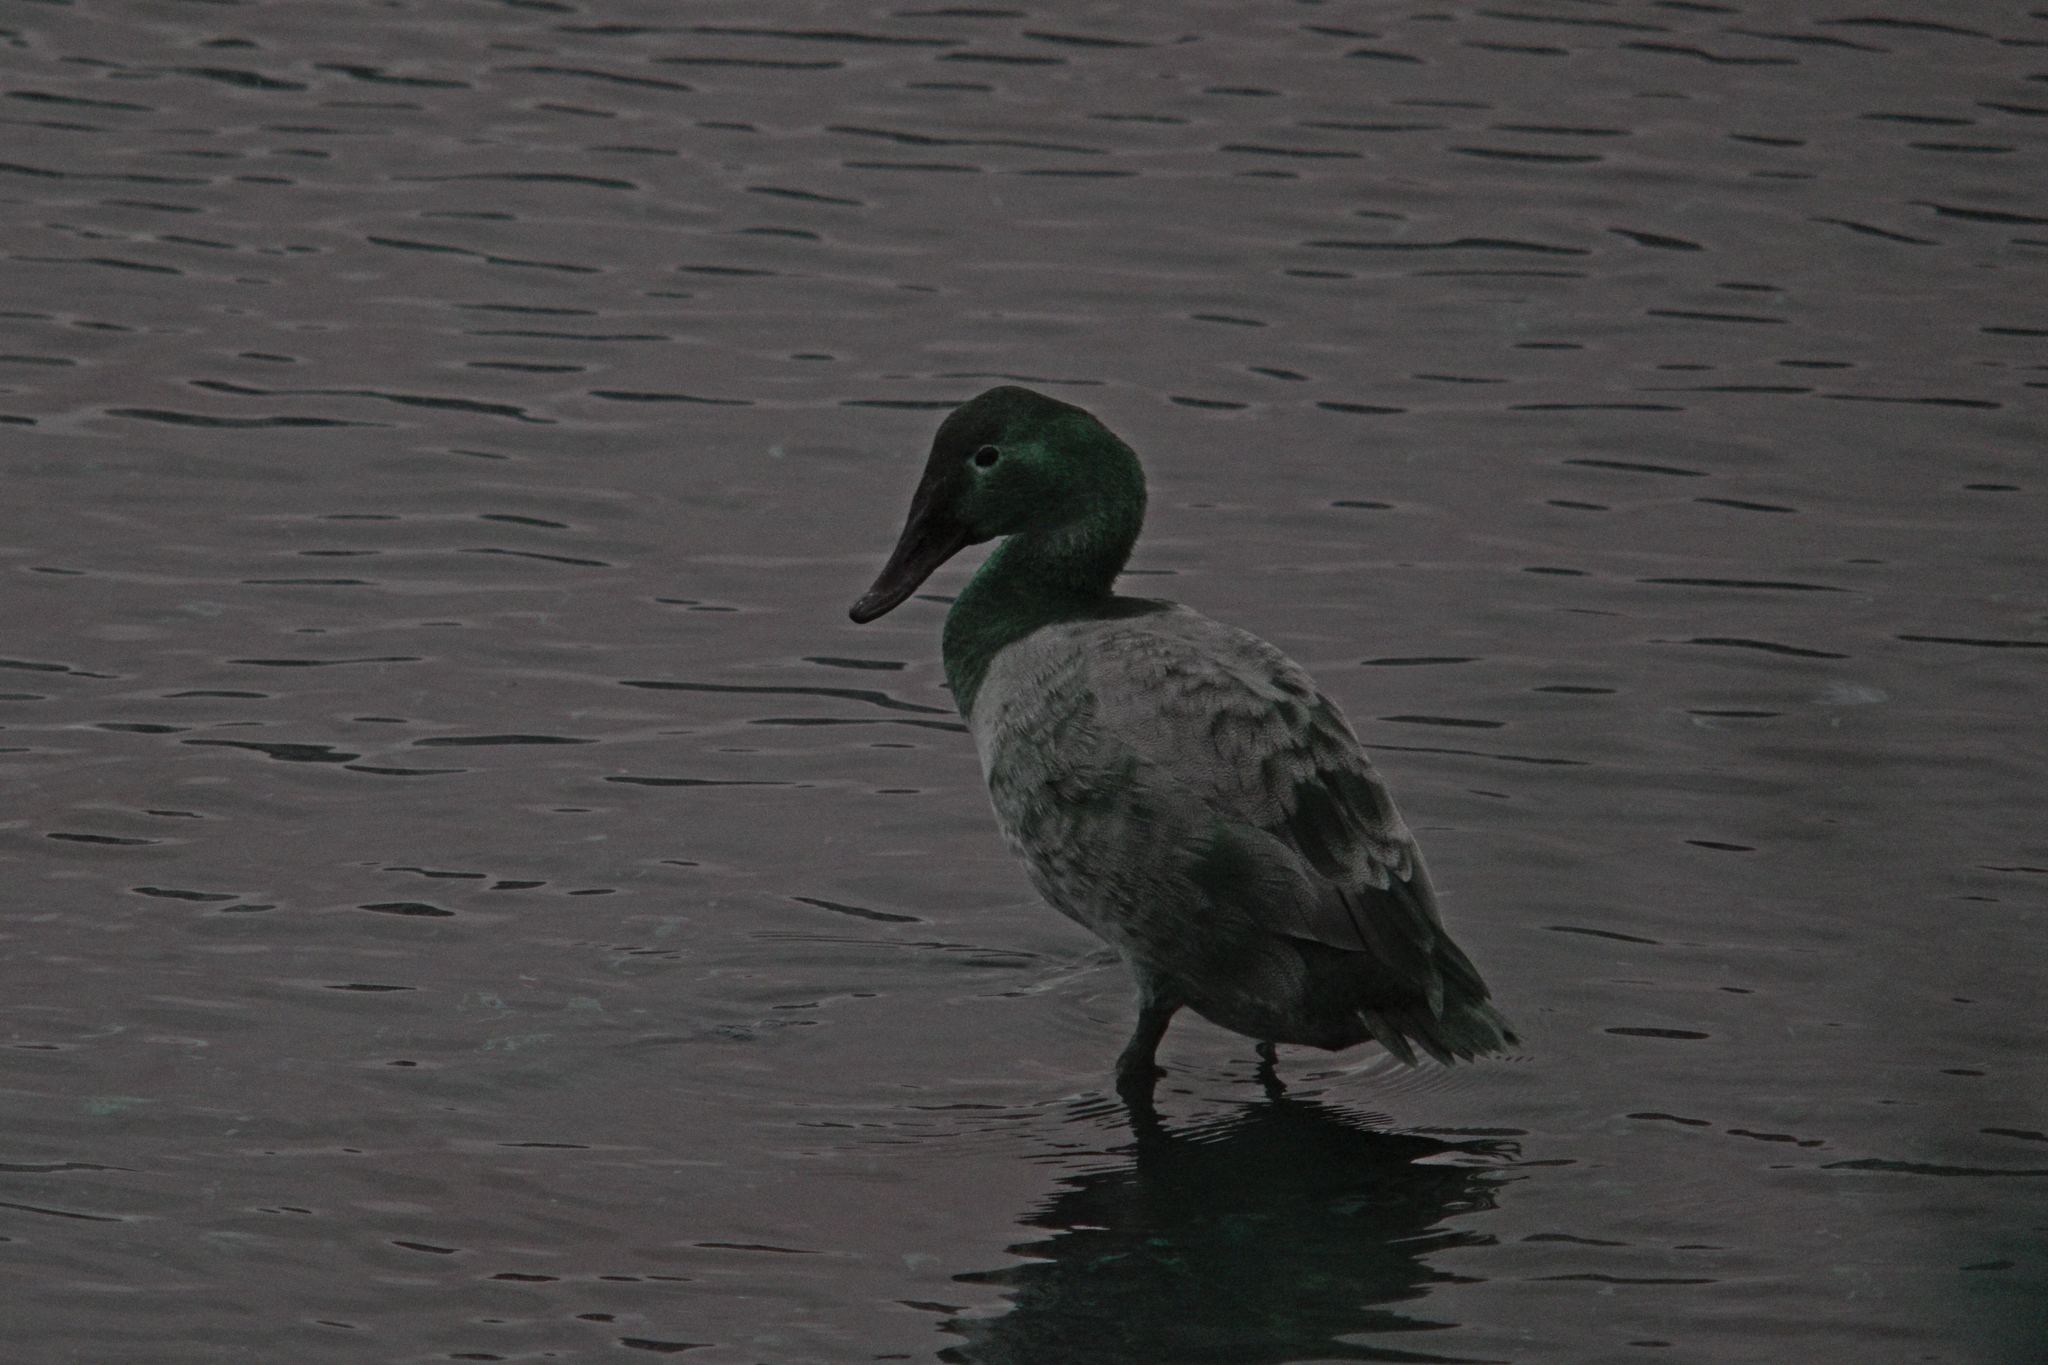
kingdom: Animalia
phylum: Chordata
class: Aves
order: Anseriformes
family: Anatidae
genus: Aythya
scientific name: Aythya valisineria
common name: Canvasback
